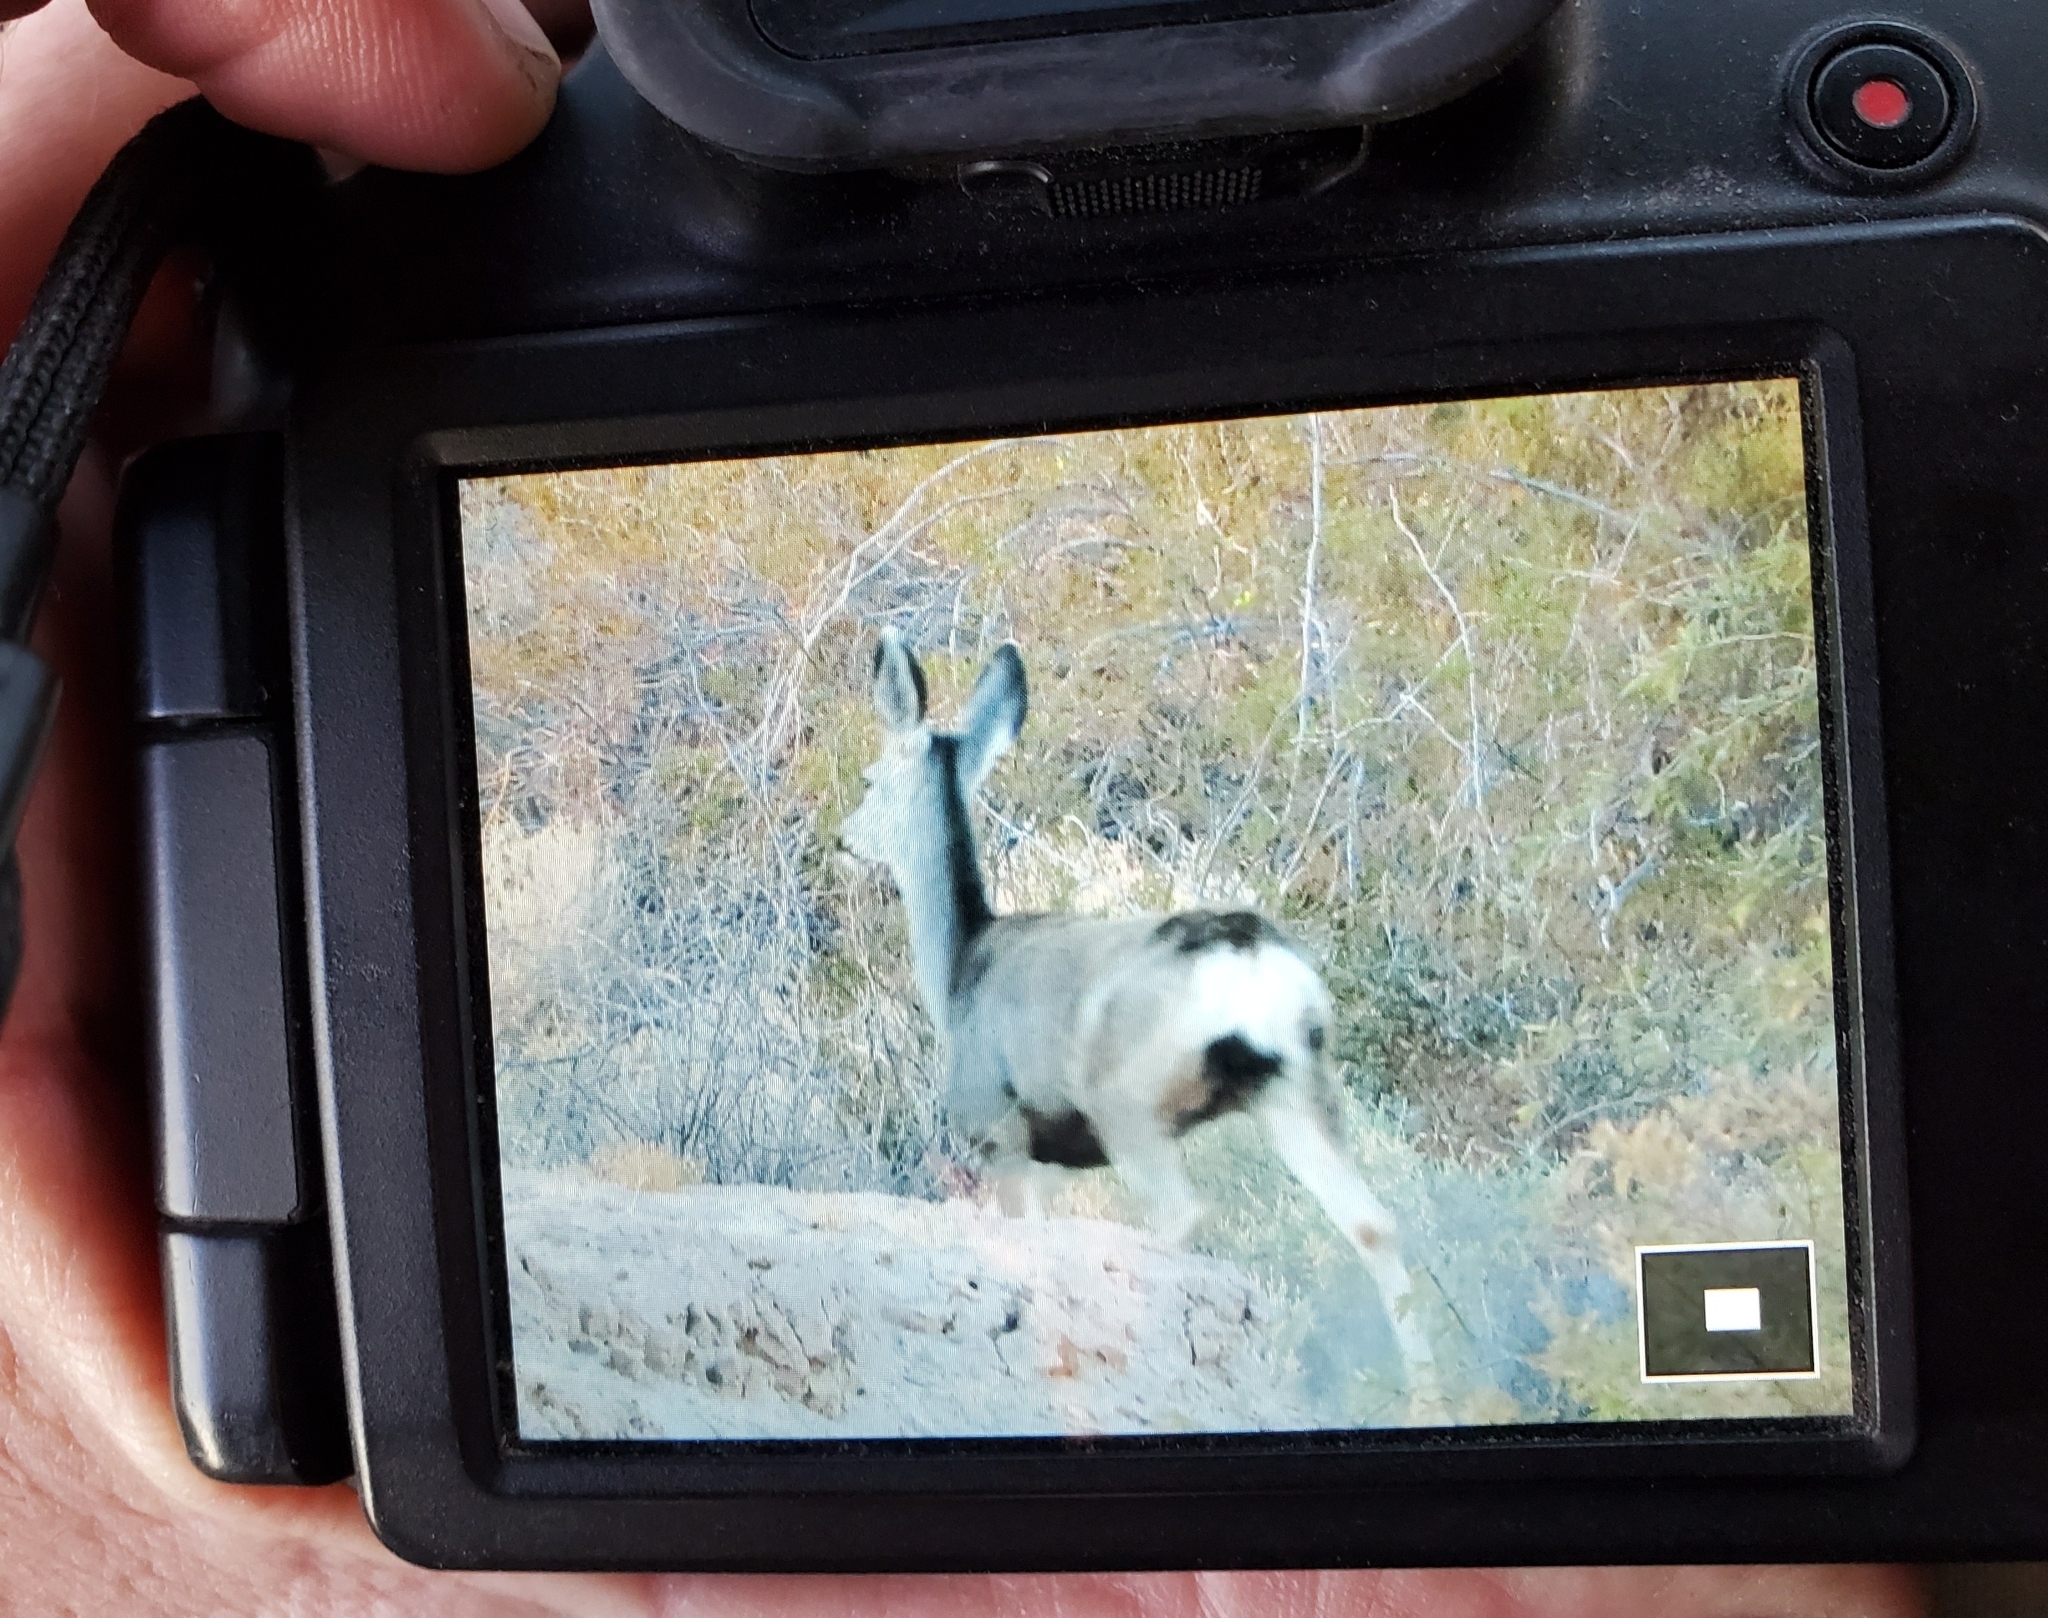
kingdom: Animalia
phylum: Chordata
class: Mammalia
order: Artiodactyla
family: Cervidae
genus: Odocoileus
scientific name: Odocoileus hemionus
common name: Mule deer
